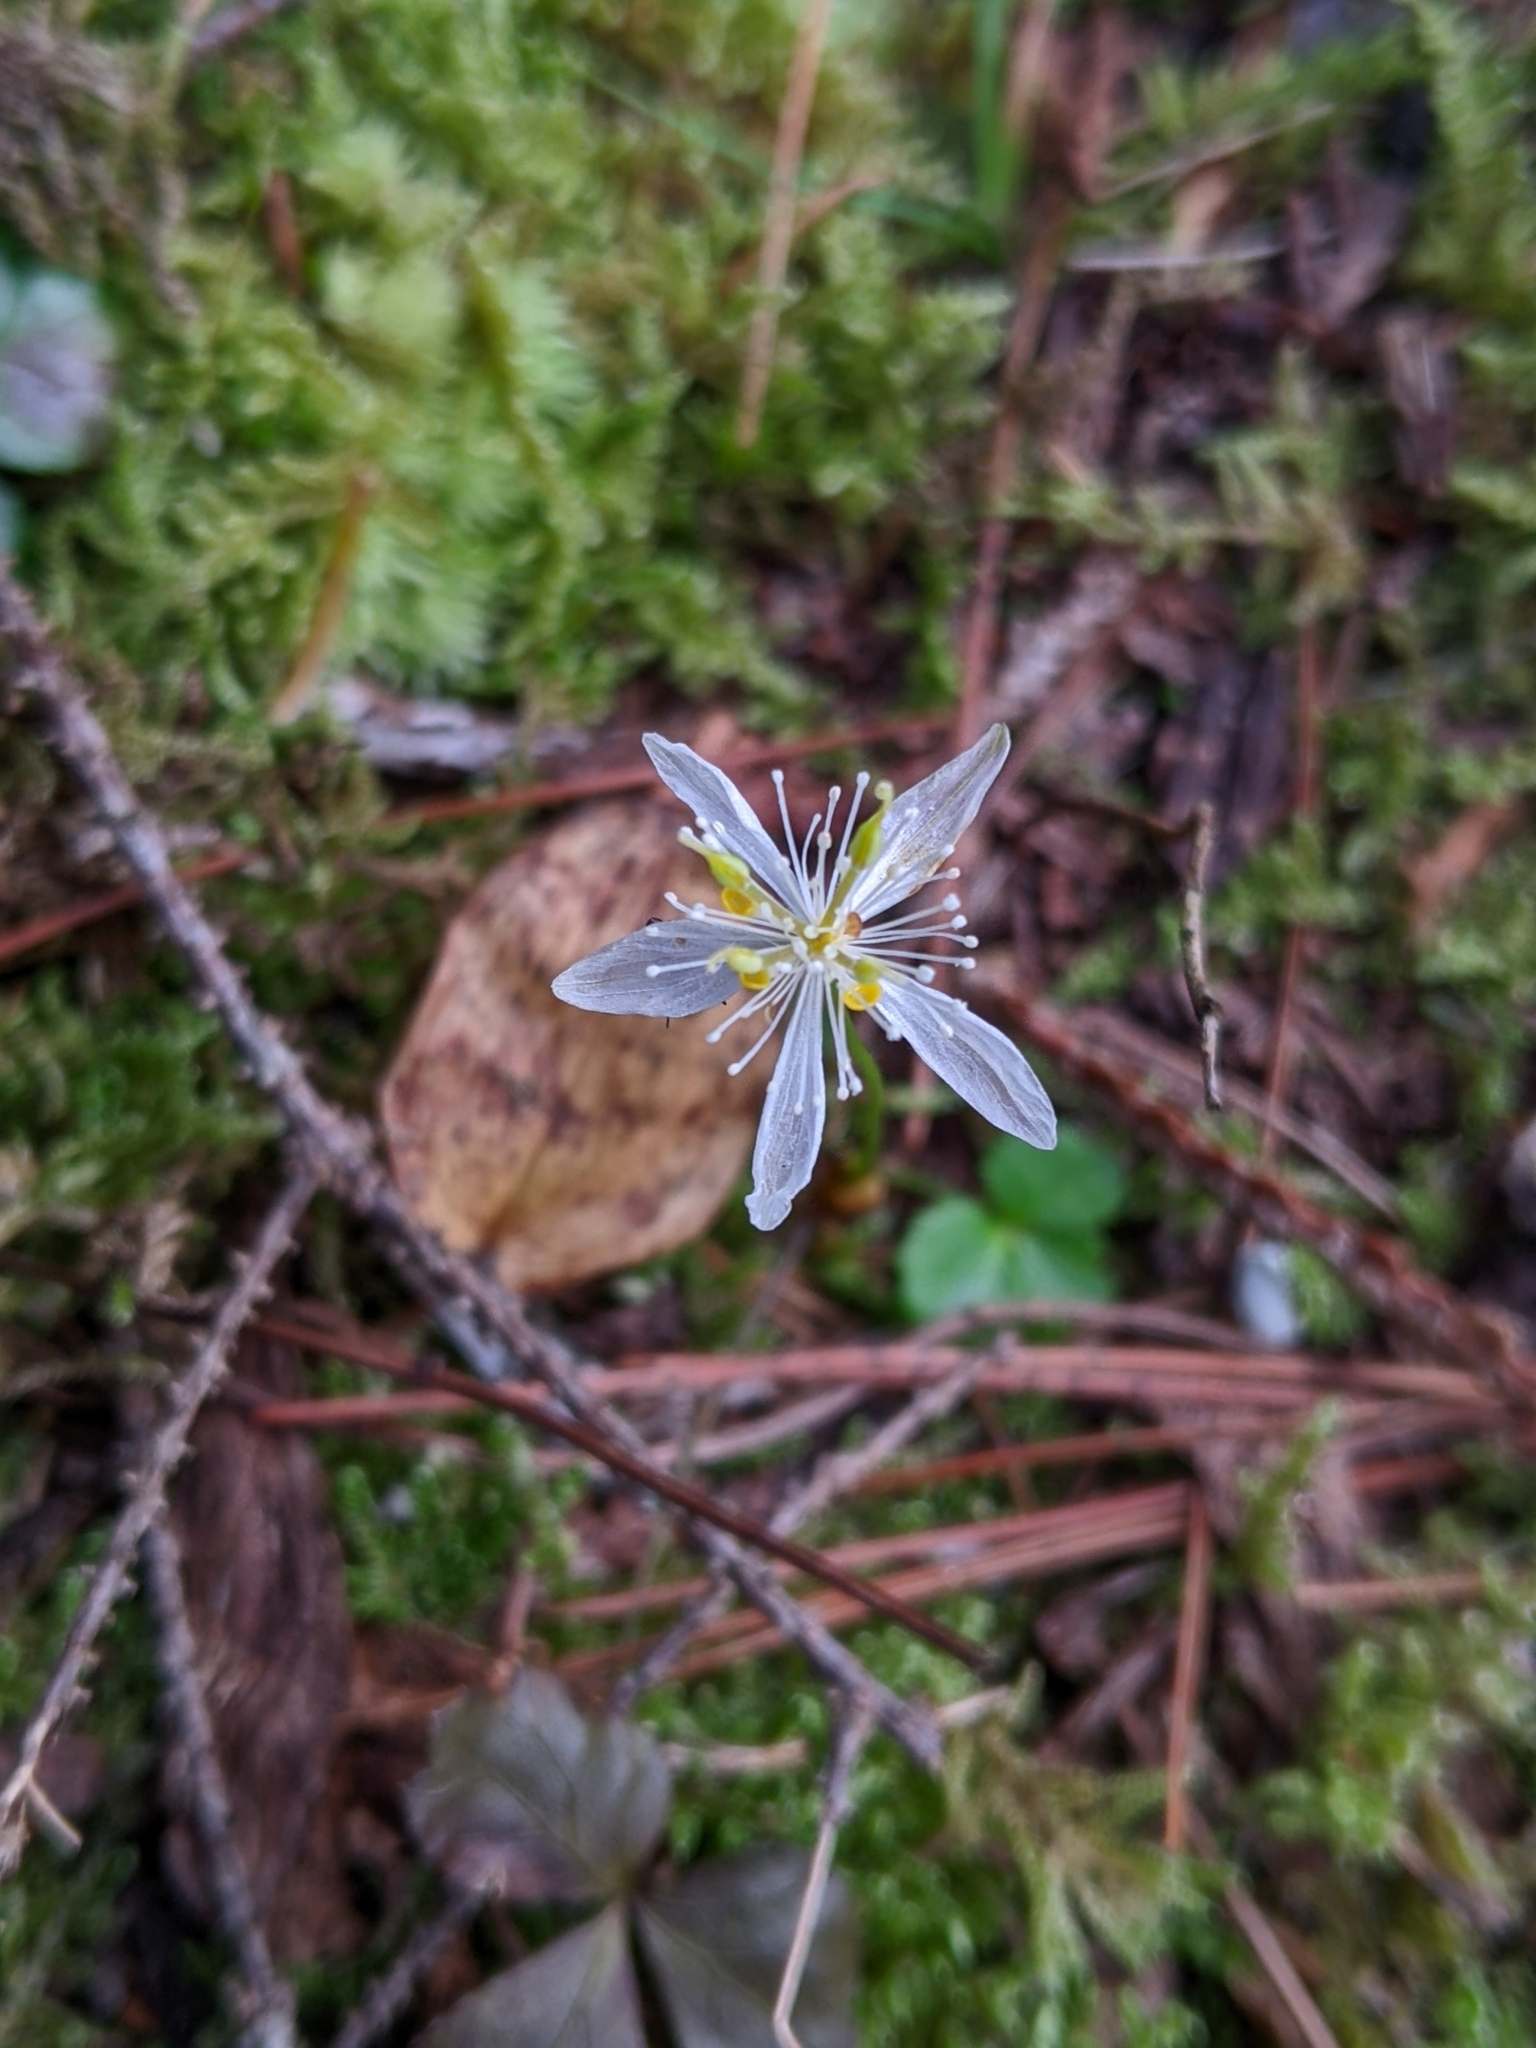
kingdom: Plantae
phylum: Tracheophyta
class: Magnoliopsida
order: Ranunculales
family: Ranunculaceae
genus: Coptis
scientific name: Coptis trifolia
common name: Canker-root
